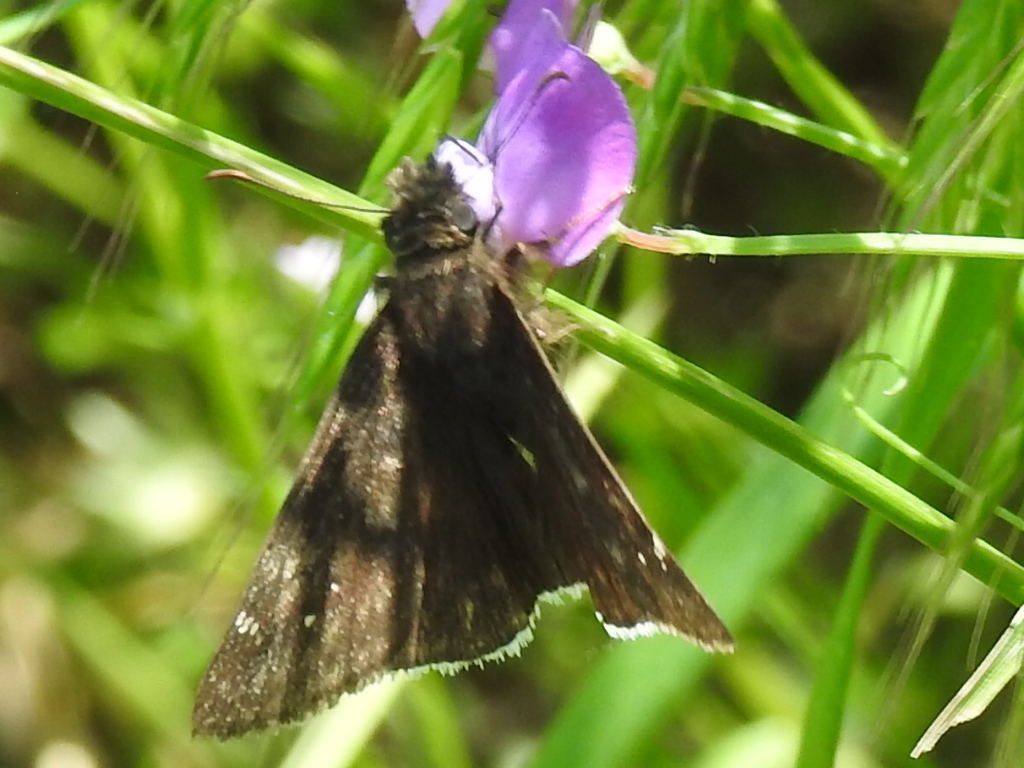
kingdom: Animalia
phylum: Arthropoda
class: Insecta
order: Lepidoptera
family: Hesperiidae
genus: Erynnis
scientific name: Erynnis funeralis
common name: Funereal duskywing
